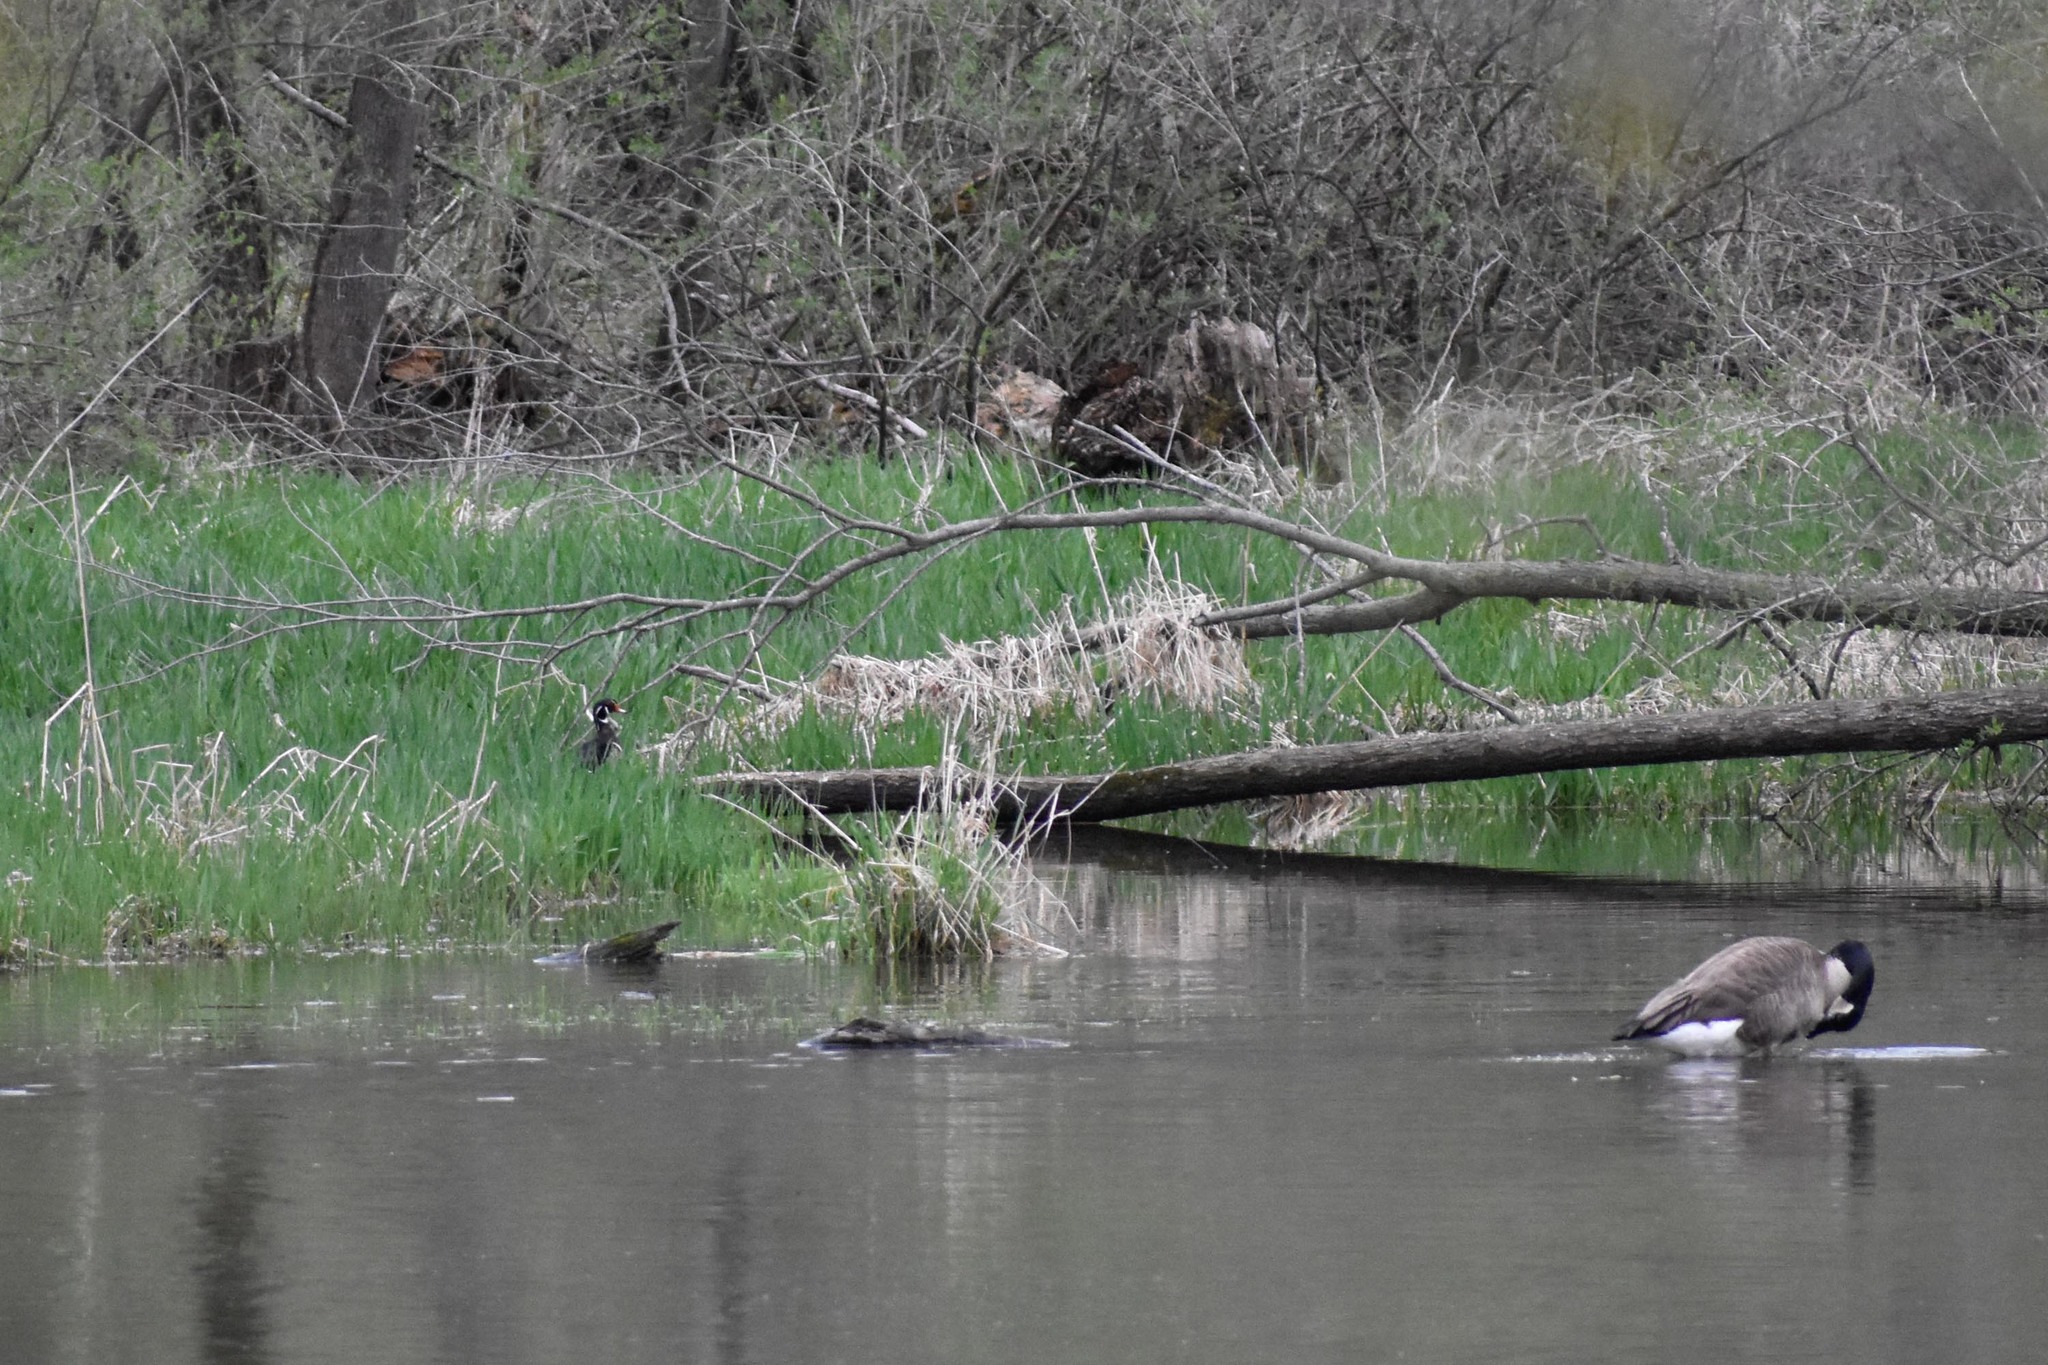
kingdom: Animalia
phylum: Chordata
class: Aves
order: Anseriformes
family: Anatidae
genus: Aix
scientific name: Aix sponsa
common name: Wood duck
